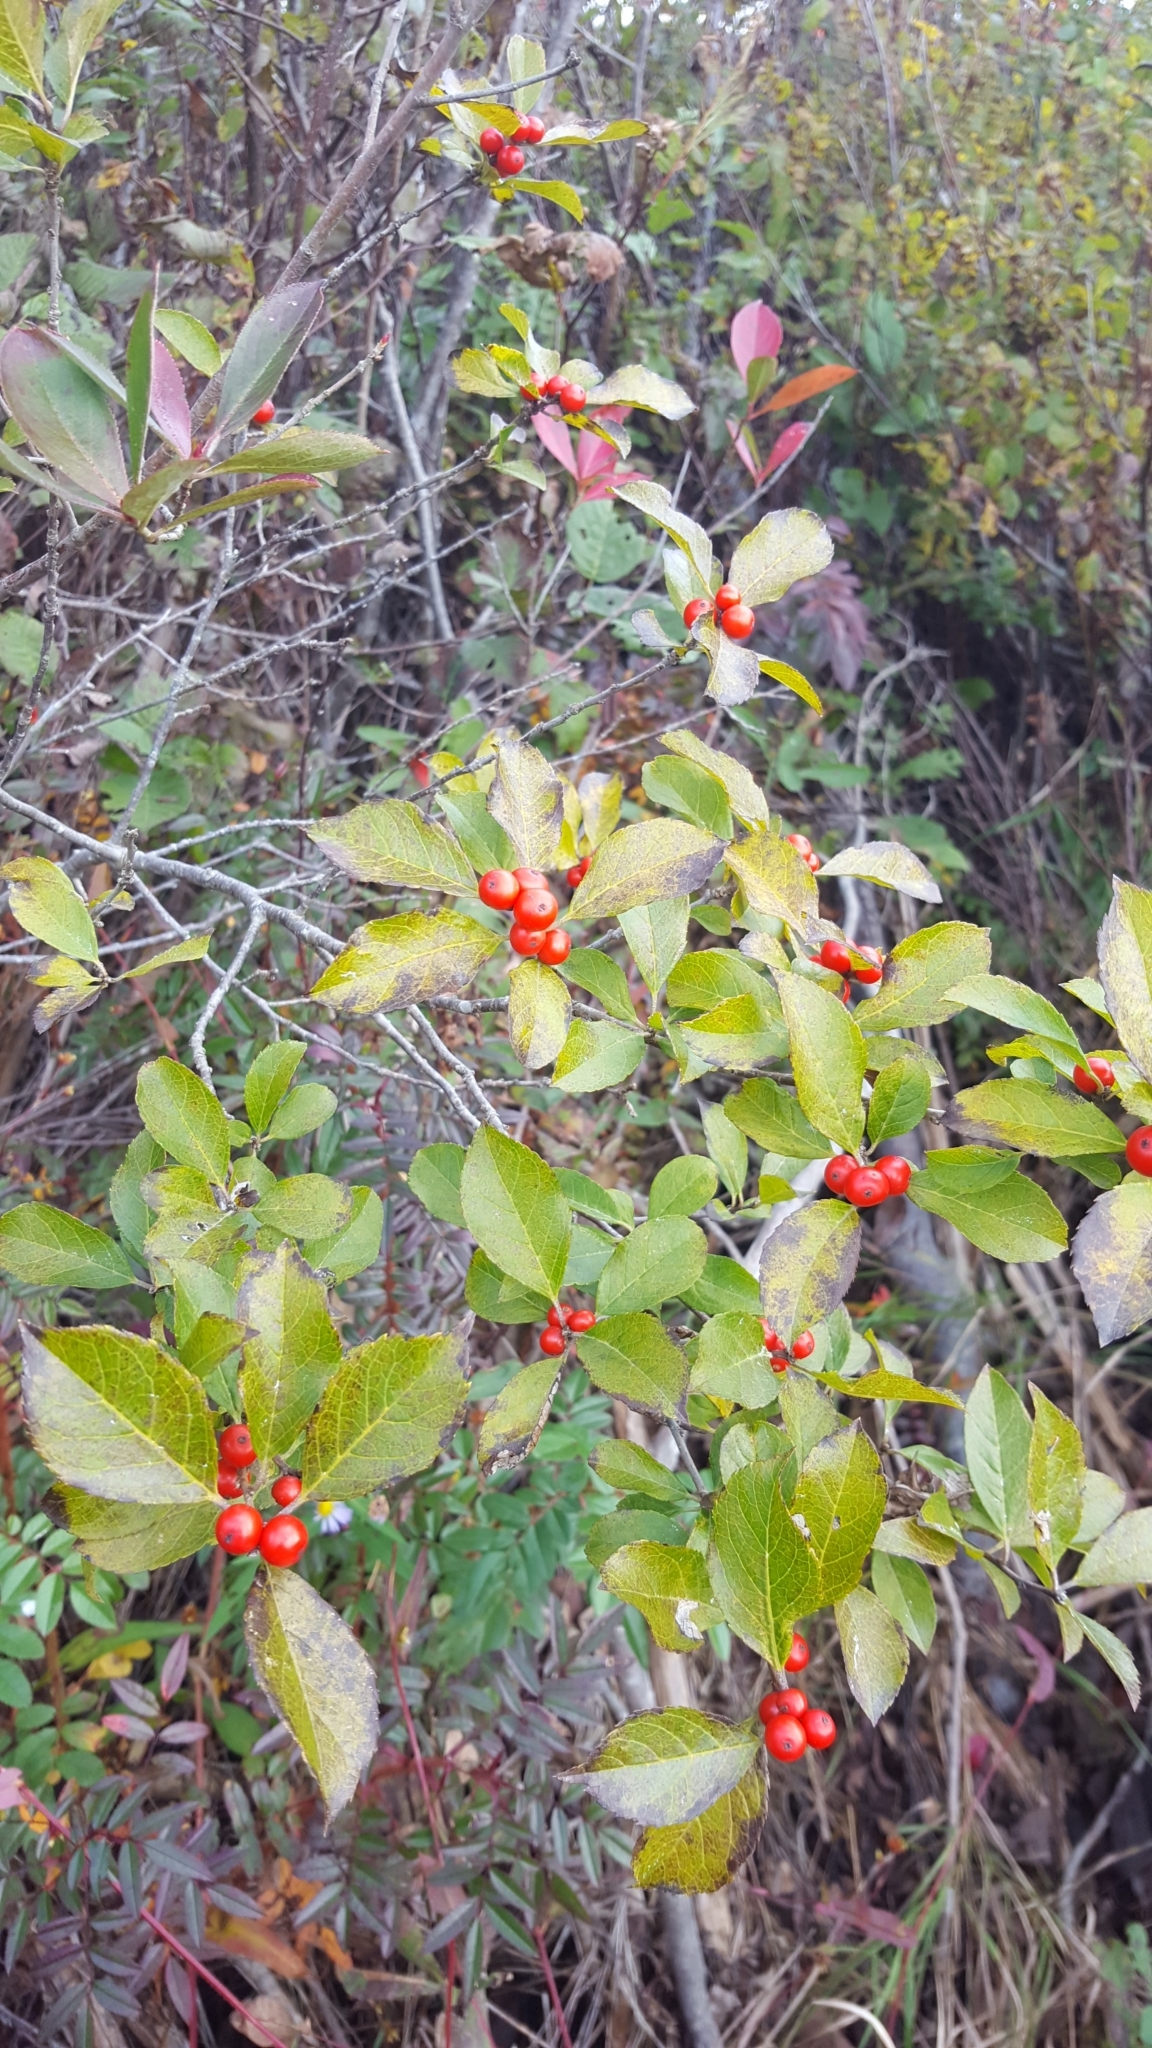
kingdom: Plantae
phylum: Tracheophyta
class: Magnoliopsida
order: Aquifoliales
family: Aquifoliaceae
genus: Ilex
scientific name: Ilex verticillata
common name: Virginia winterberry
